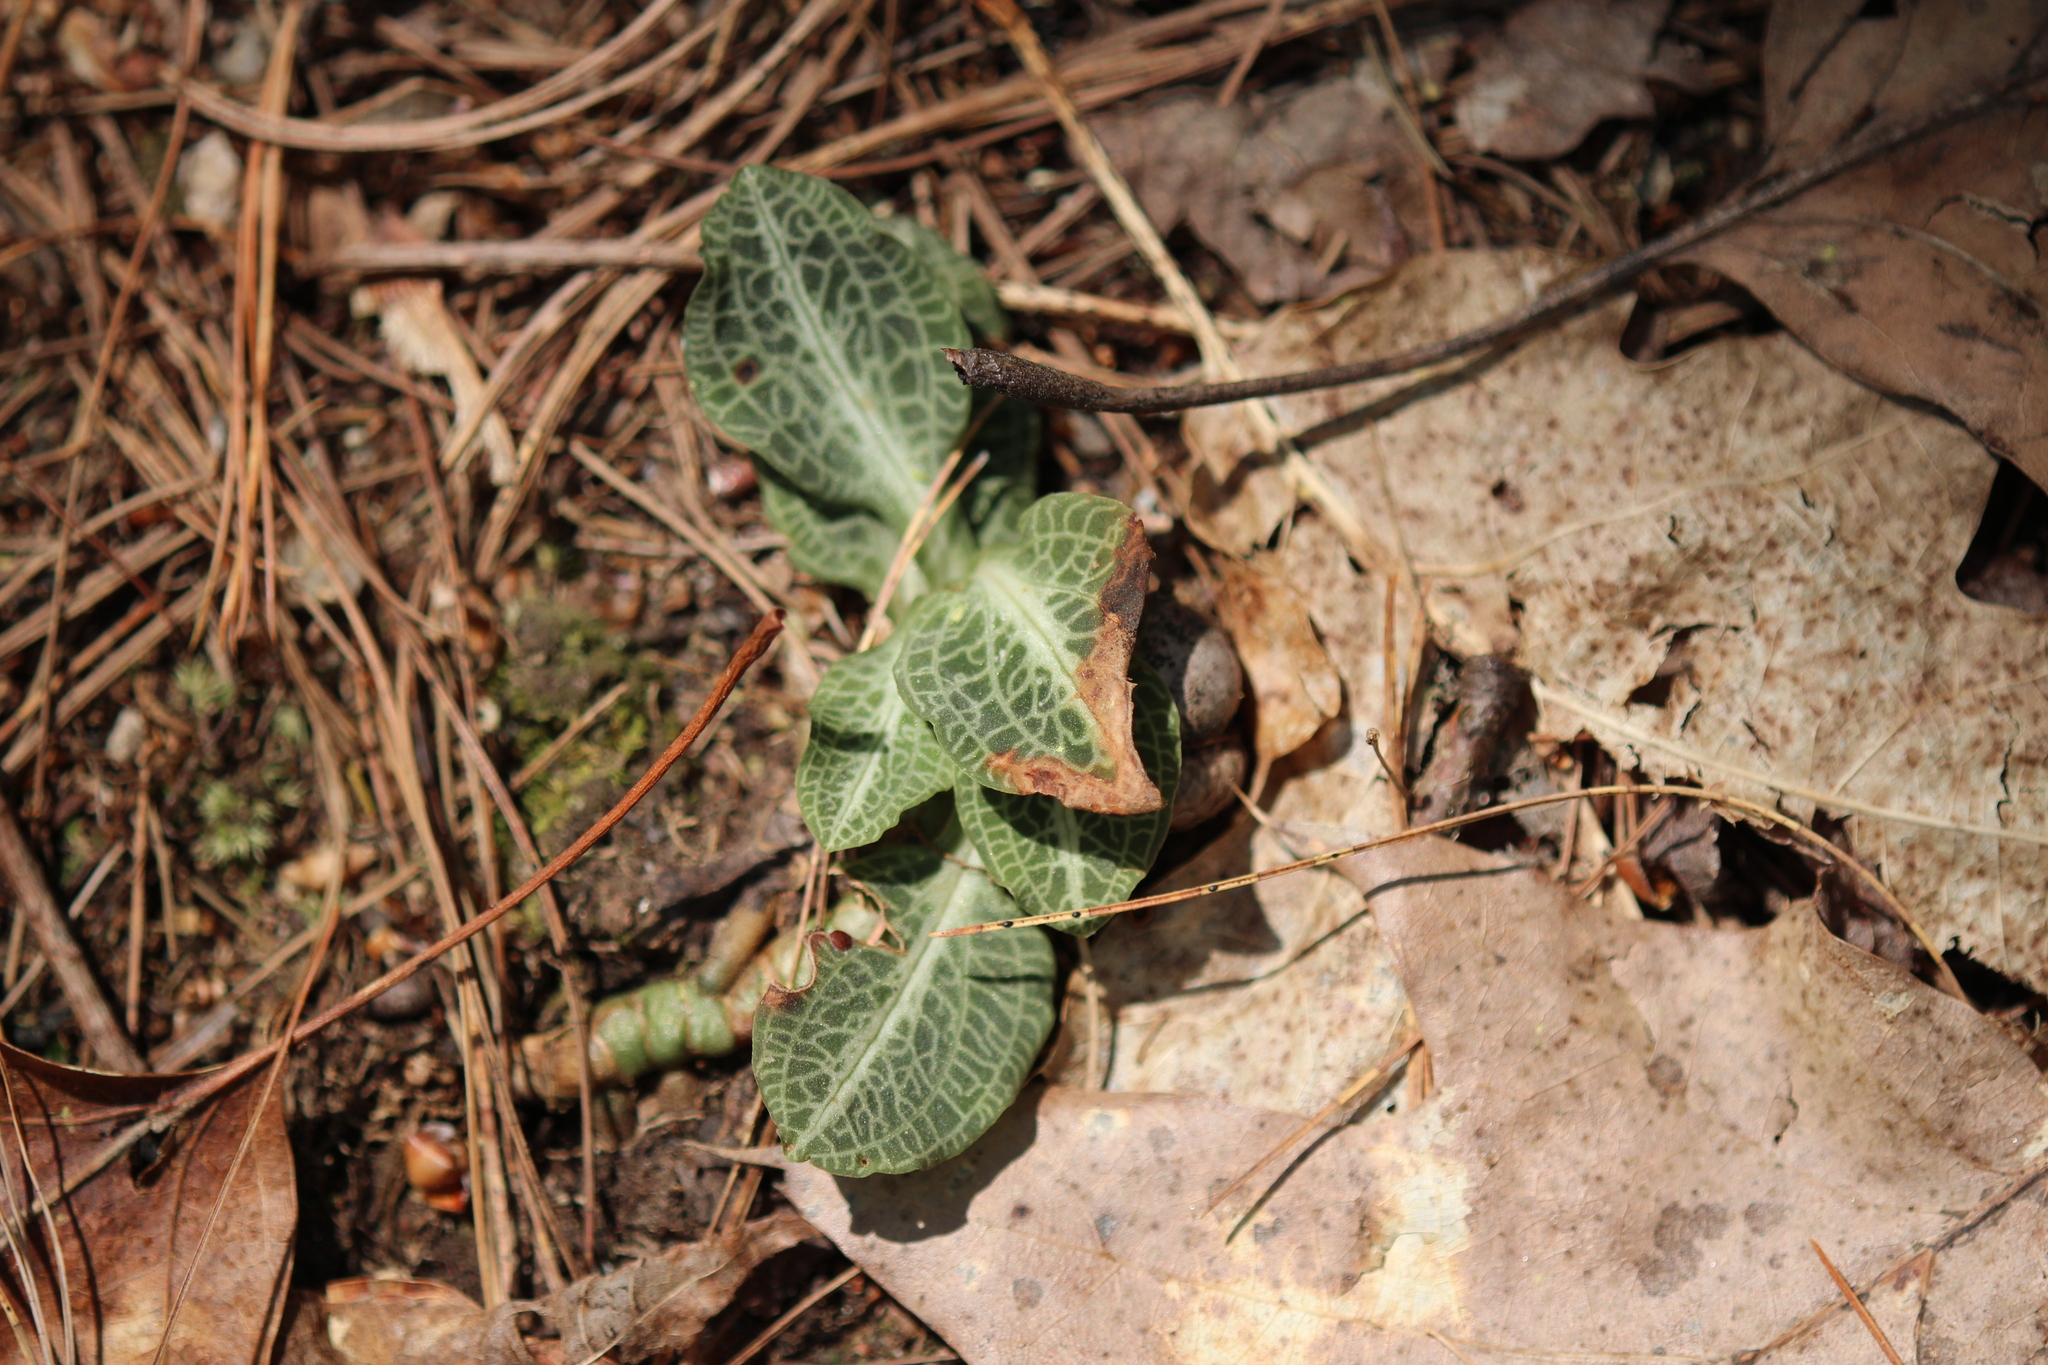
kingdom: Plantae
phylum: Tracheophyta
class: Liliopsida
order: Asparagales
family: Orchidaceae
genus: Goodyera
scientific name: Goodyera pubescens
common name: Downy rattlesnake-plantain
